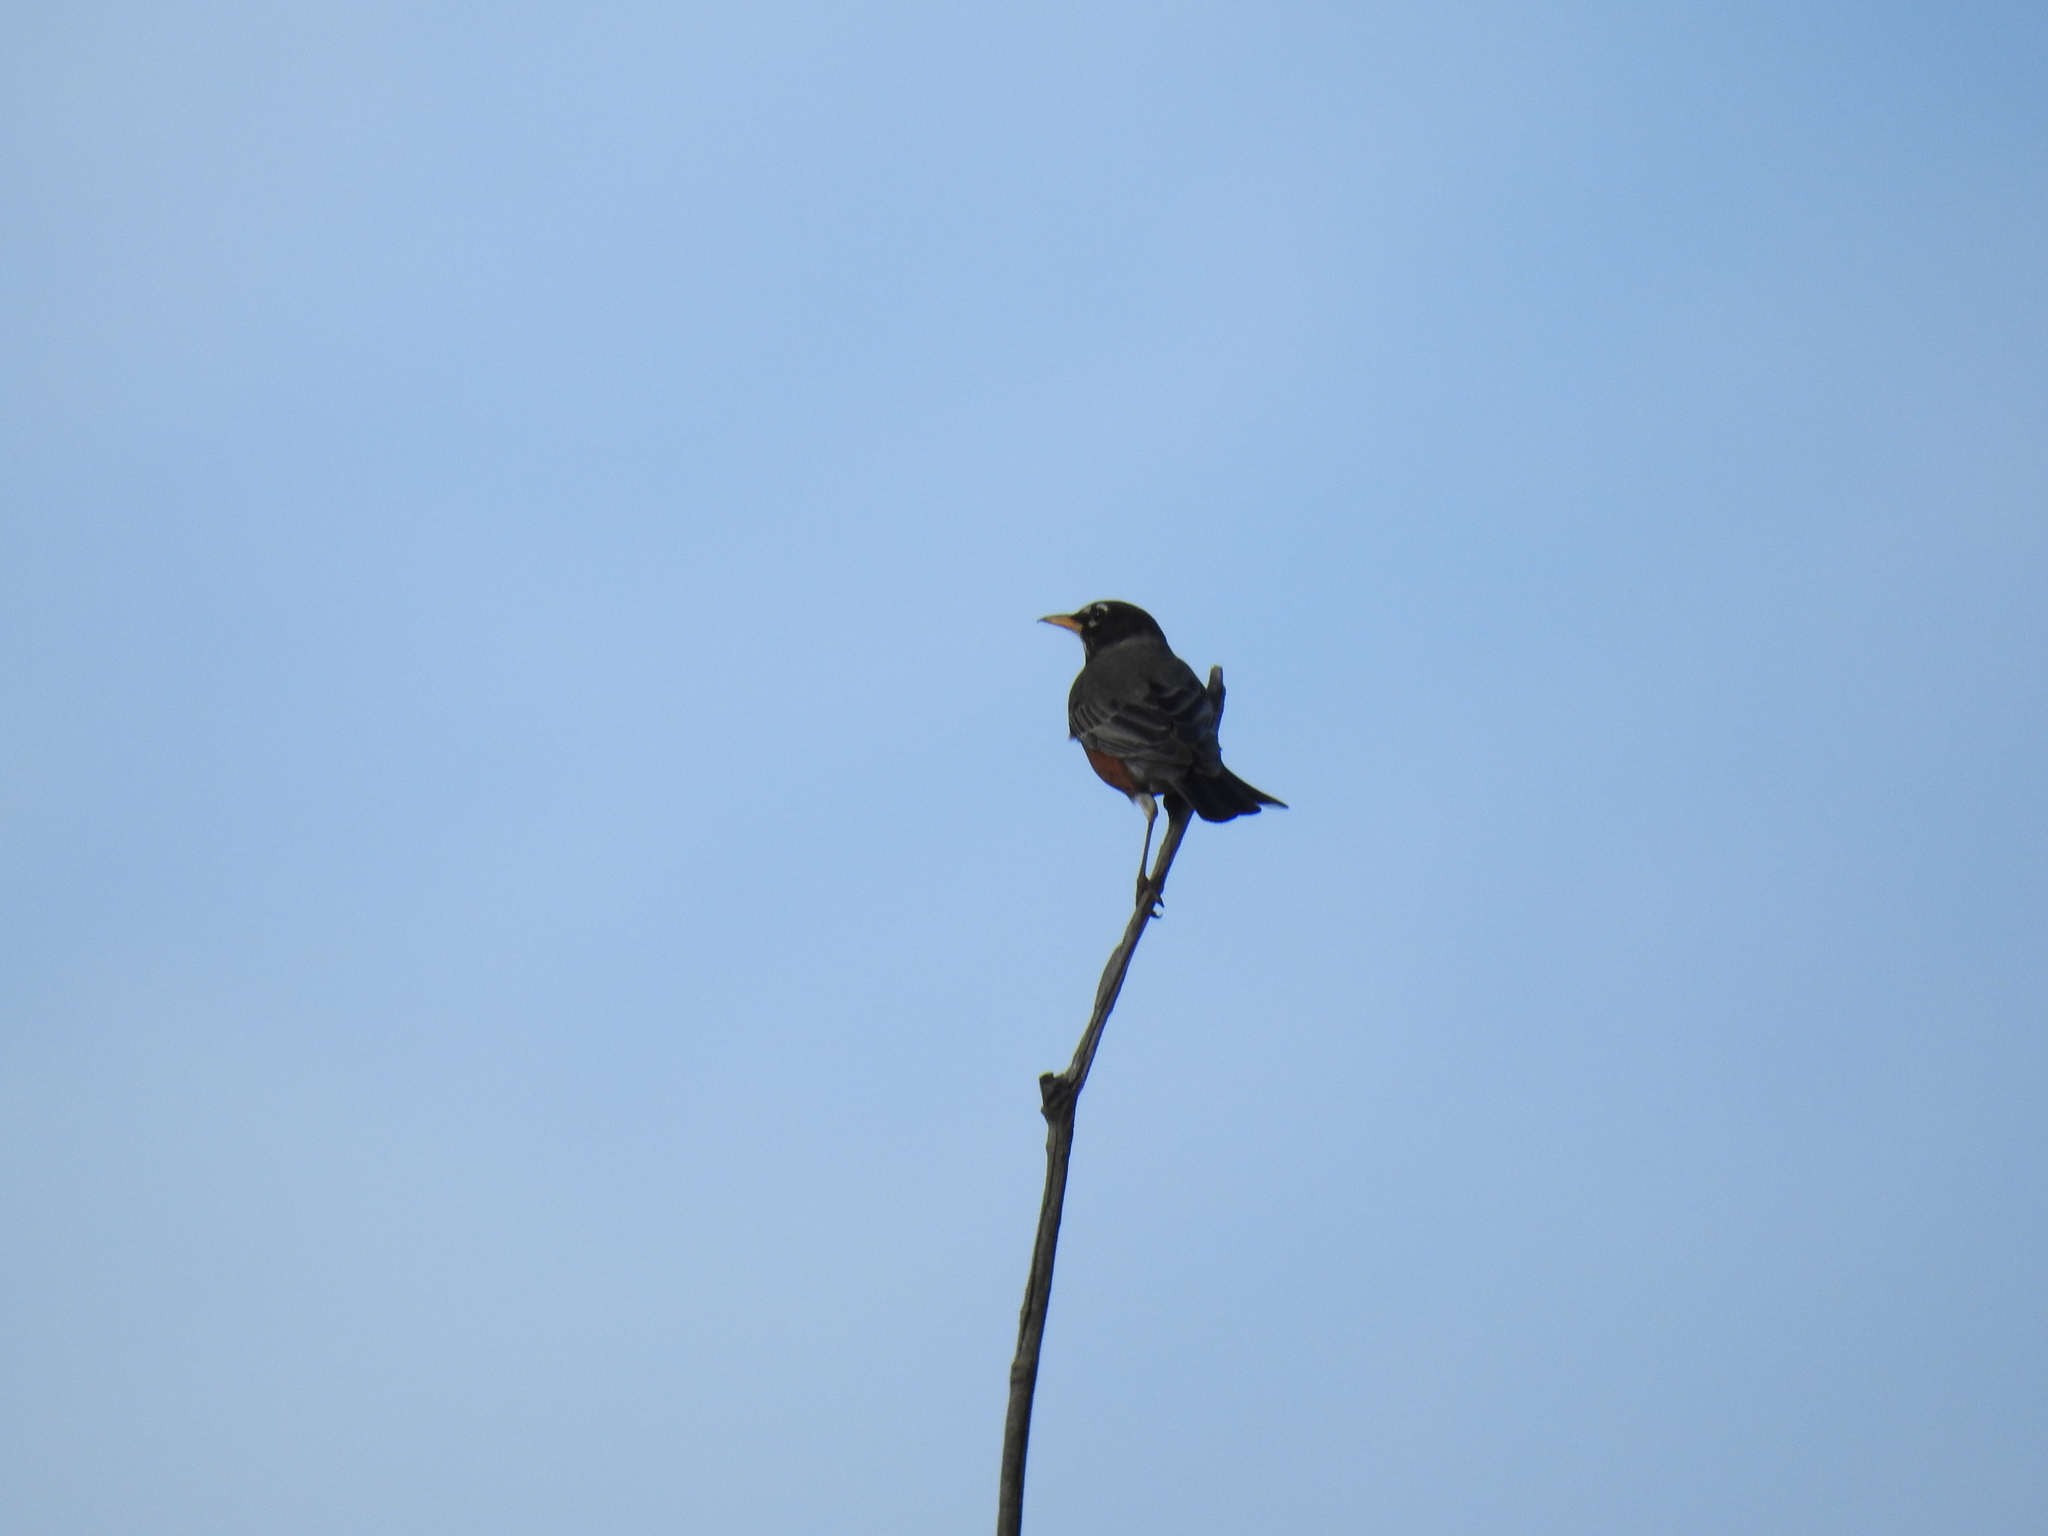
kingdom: Animalia
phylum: Chordata
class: Aves
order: Passeriformes
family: Turdidae
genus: Turdus
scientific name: Turdus migratorius
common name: American robin
